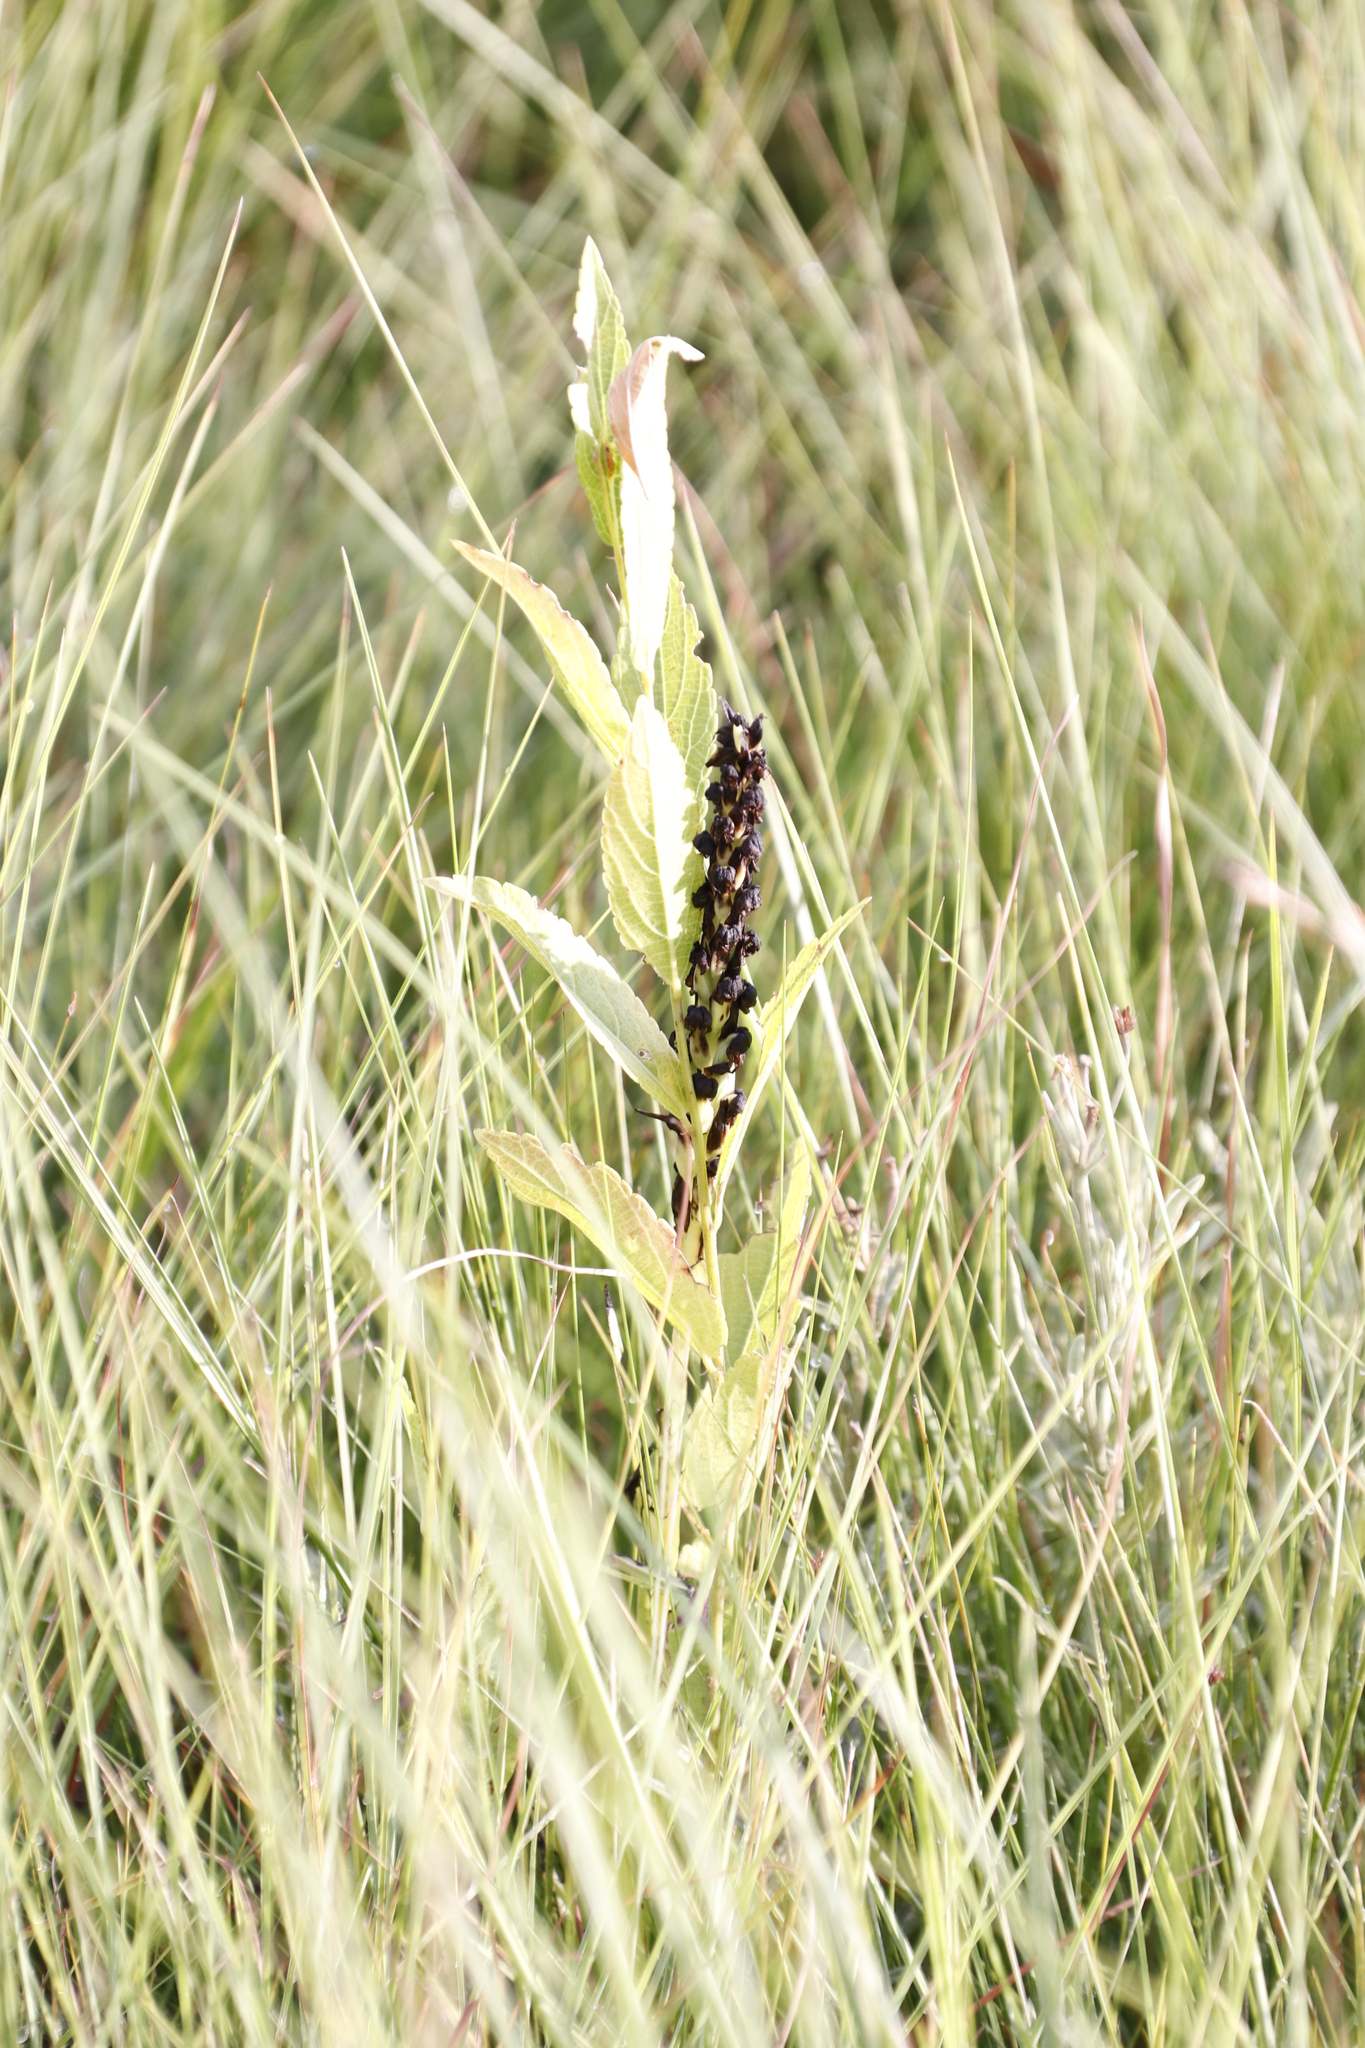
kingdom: Plantae
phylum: Tracheophyta
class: Liliopsida
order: Asparagales
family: Orchidaceae
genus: Corycium
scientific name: Corycium nigrescens
